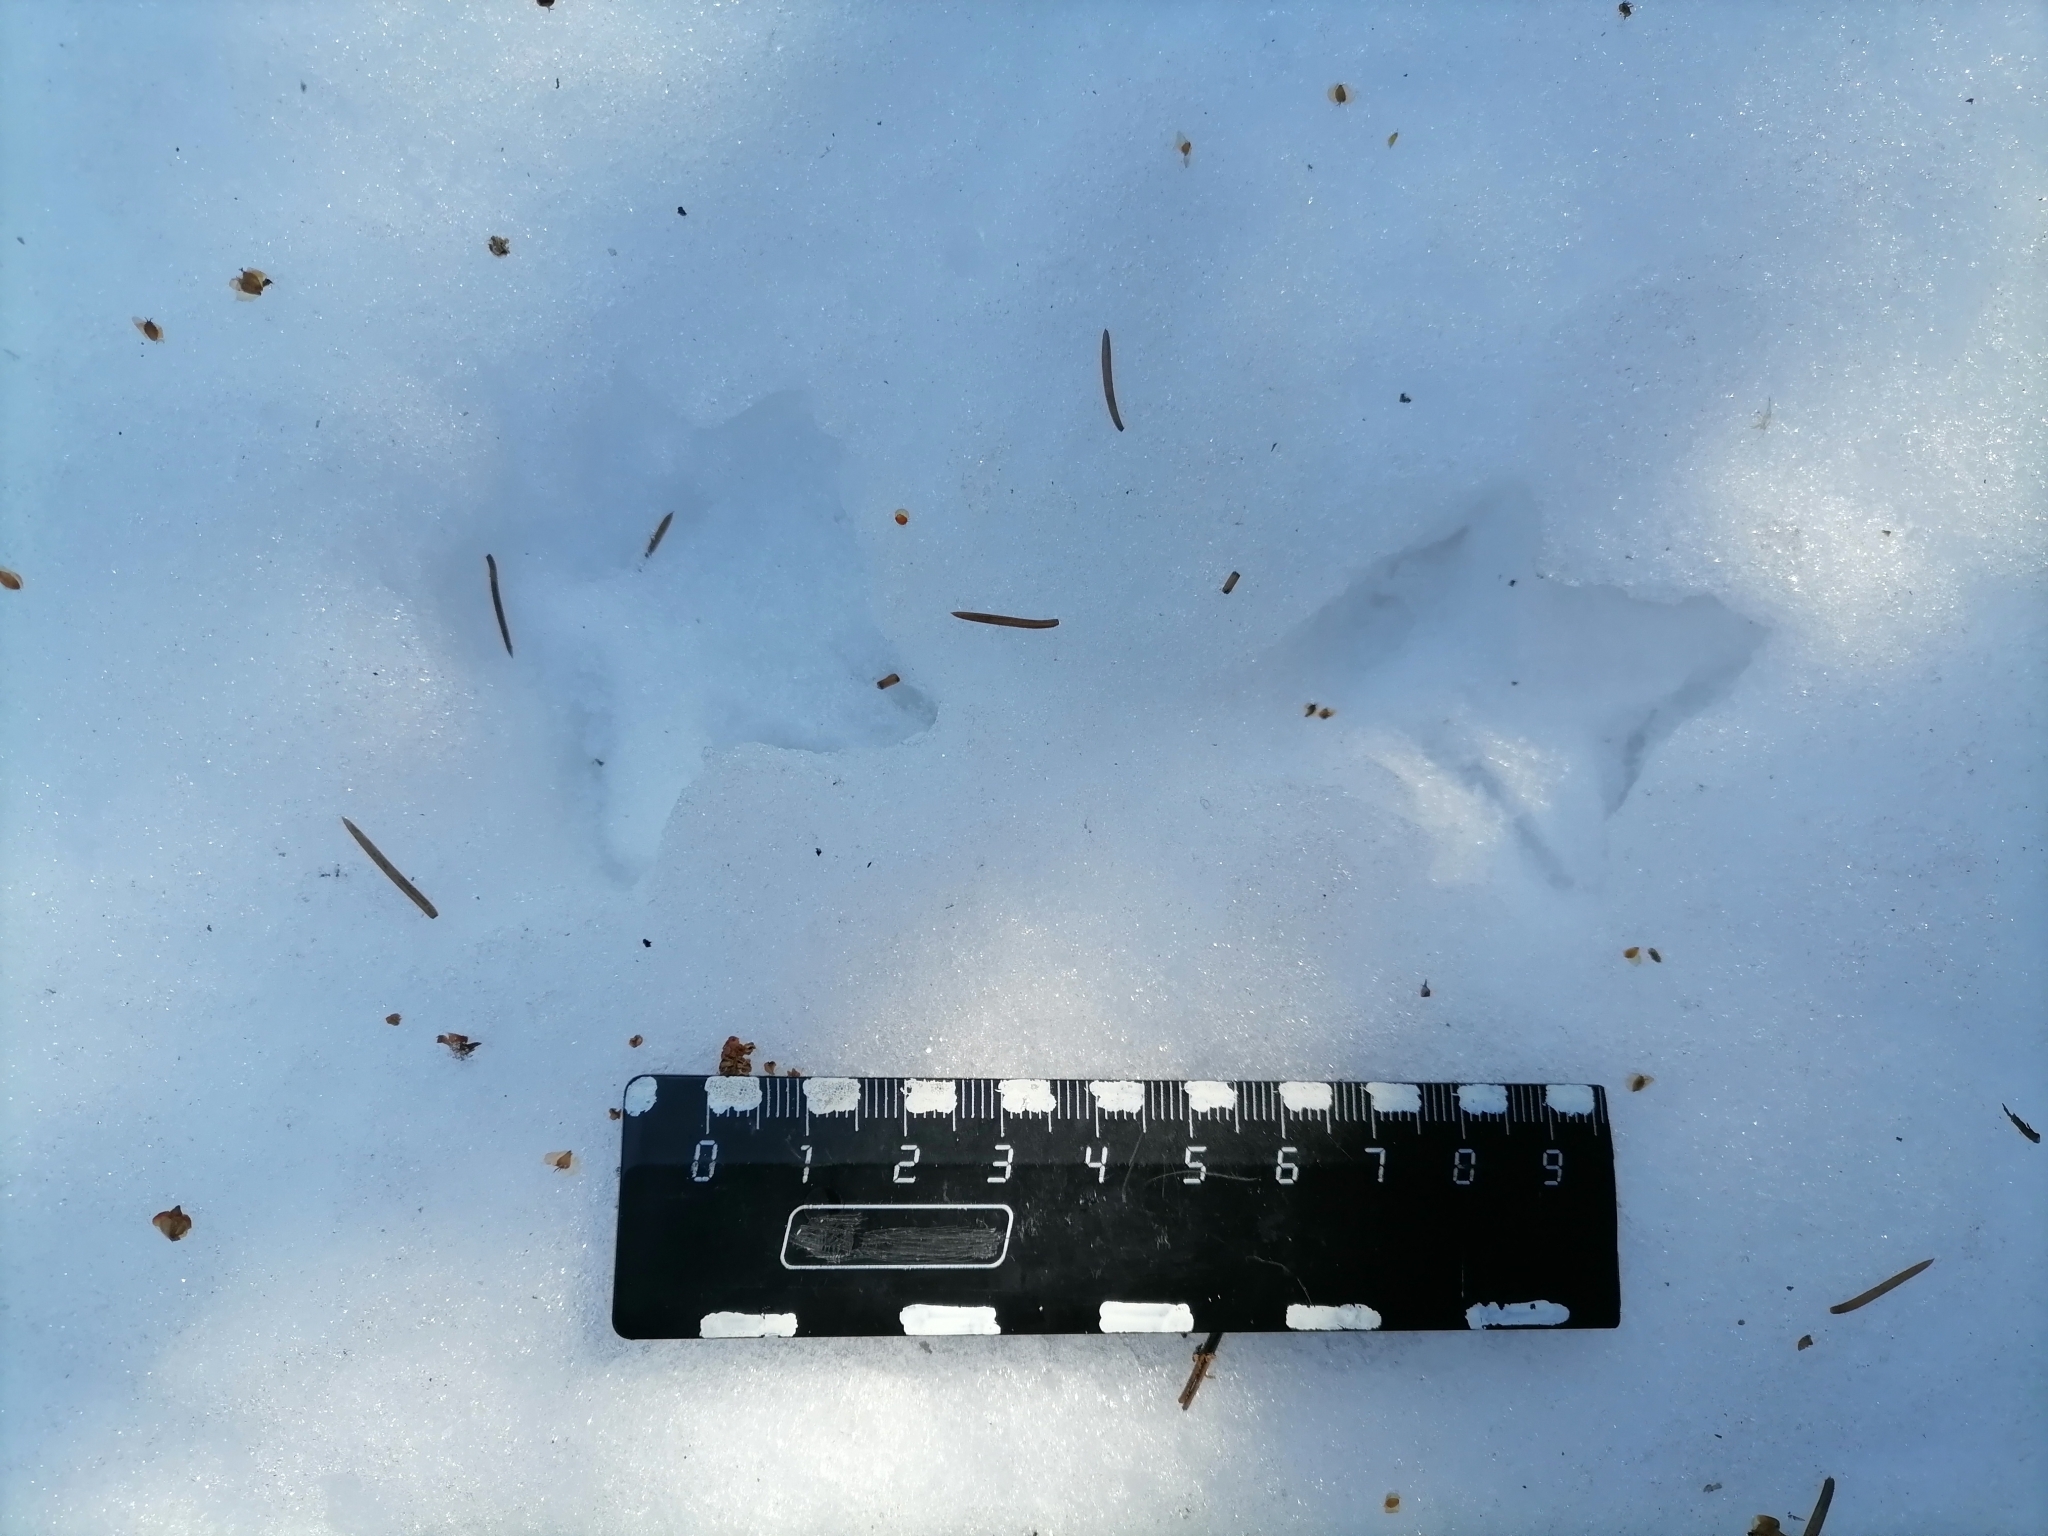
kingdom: Animalia
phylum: Chordata
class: Aves
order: Galliformes
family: Phasianidae
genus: Tetrastes
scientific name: Tetrastes bonasia
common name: Hazel grouse
